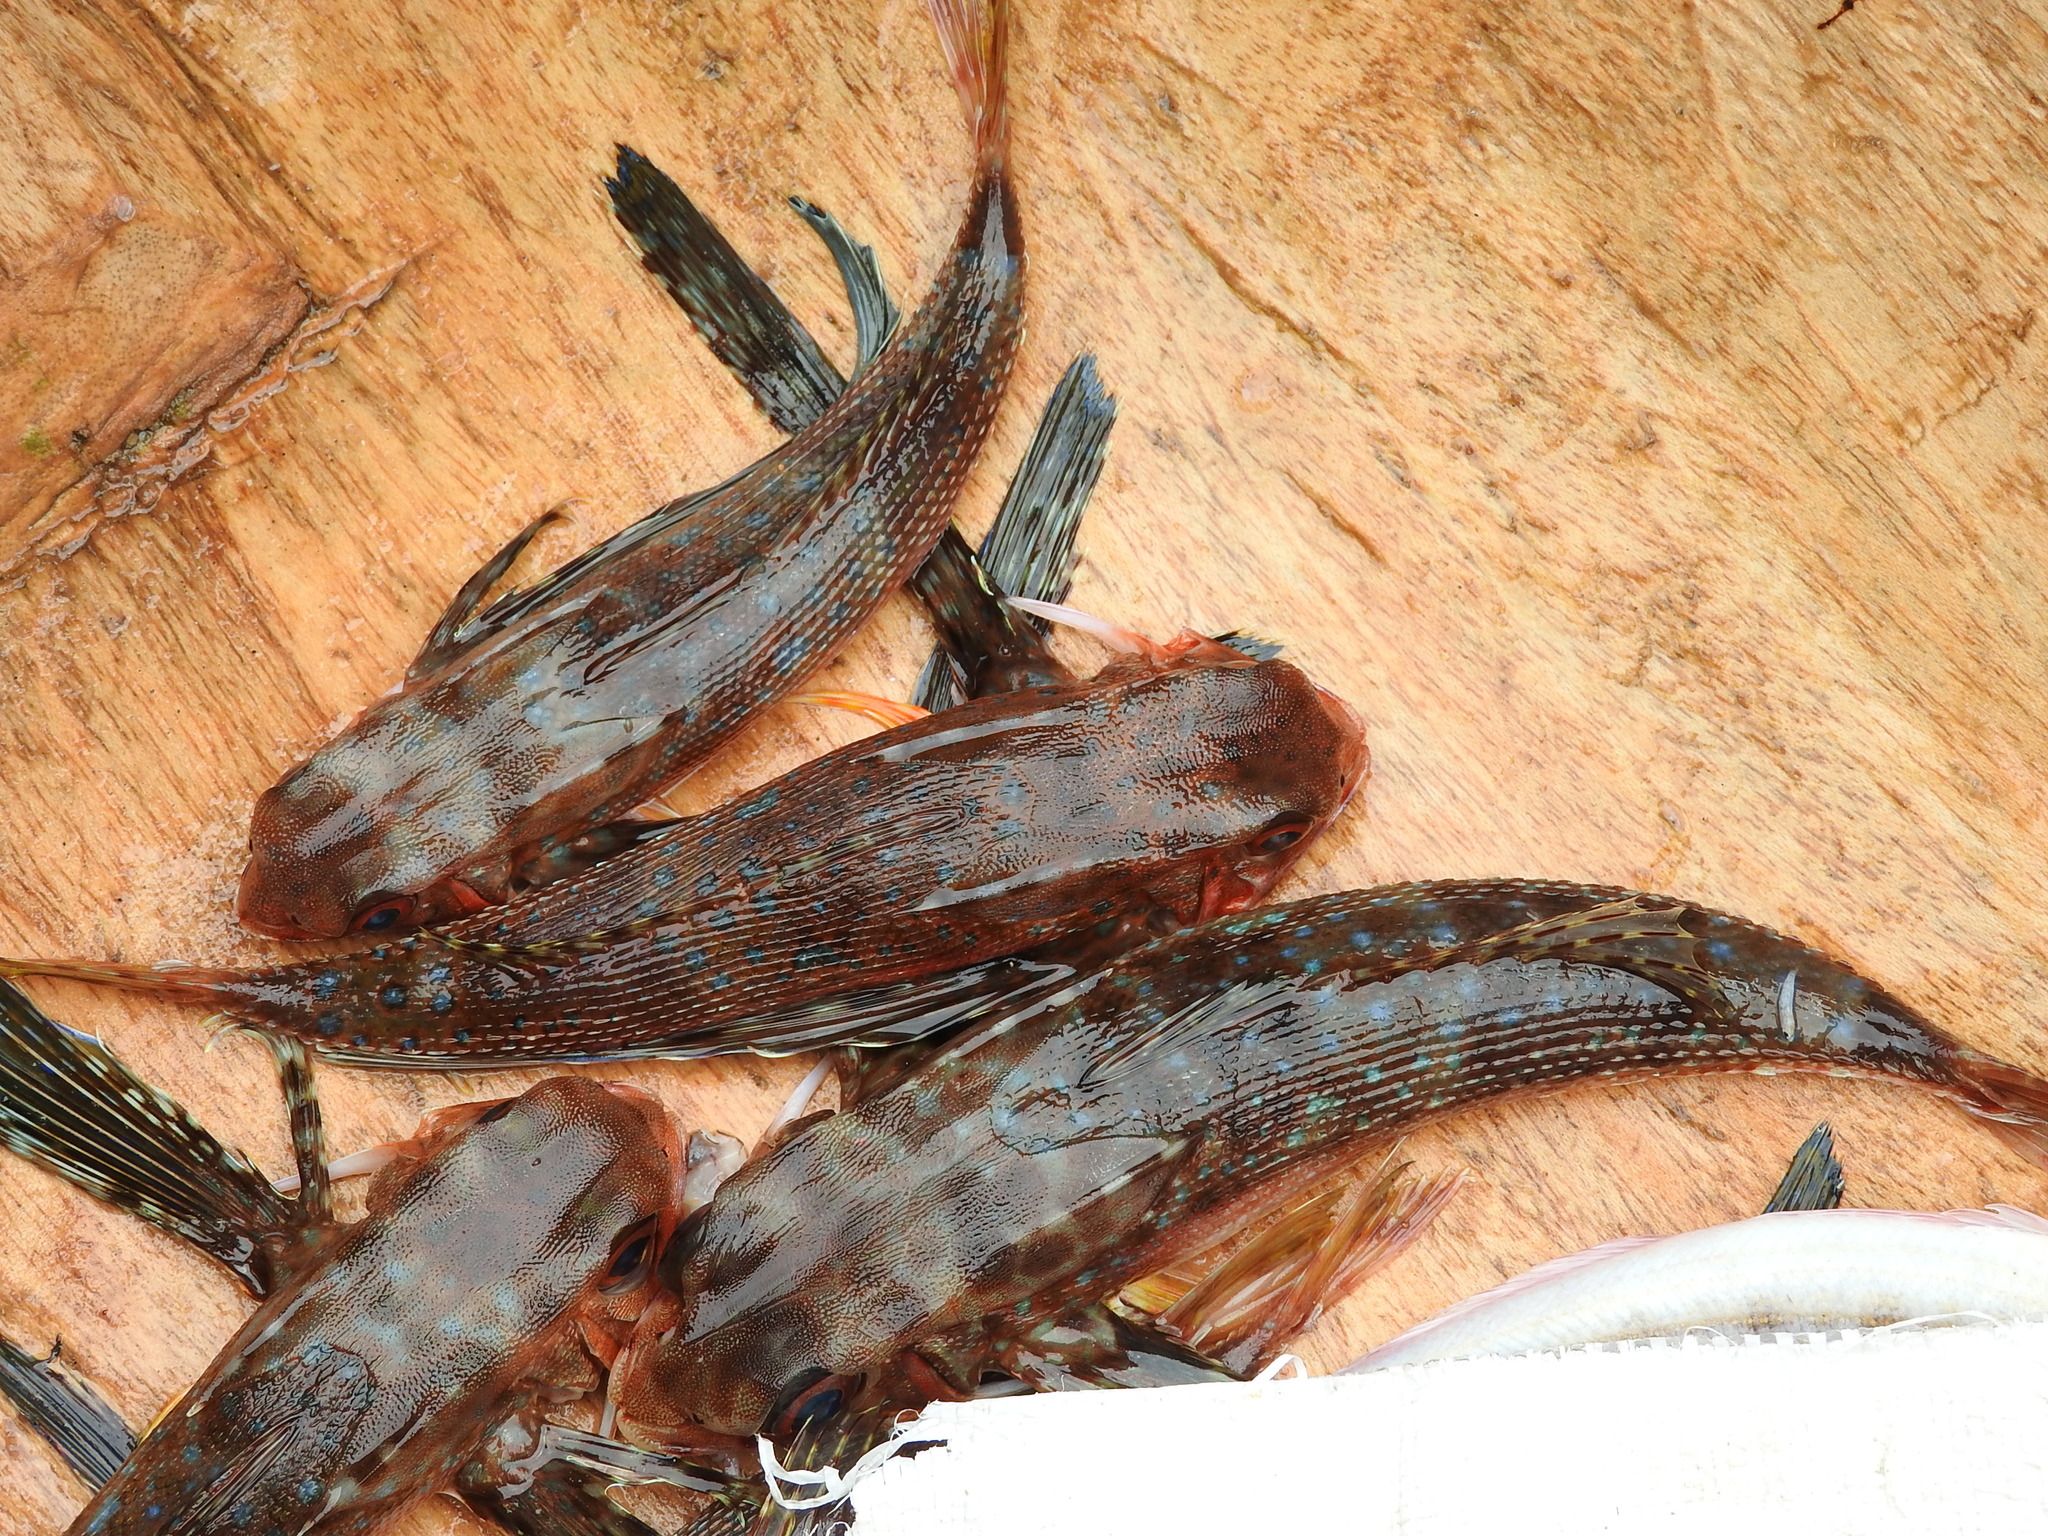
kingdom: Animalia
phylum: Chordata
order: Scorpaeniformes
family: Dactylopteridae
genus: Dactylopterus
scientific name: Dactylopterus volitans
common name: Flying gurnard
